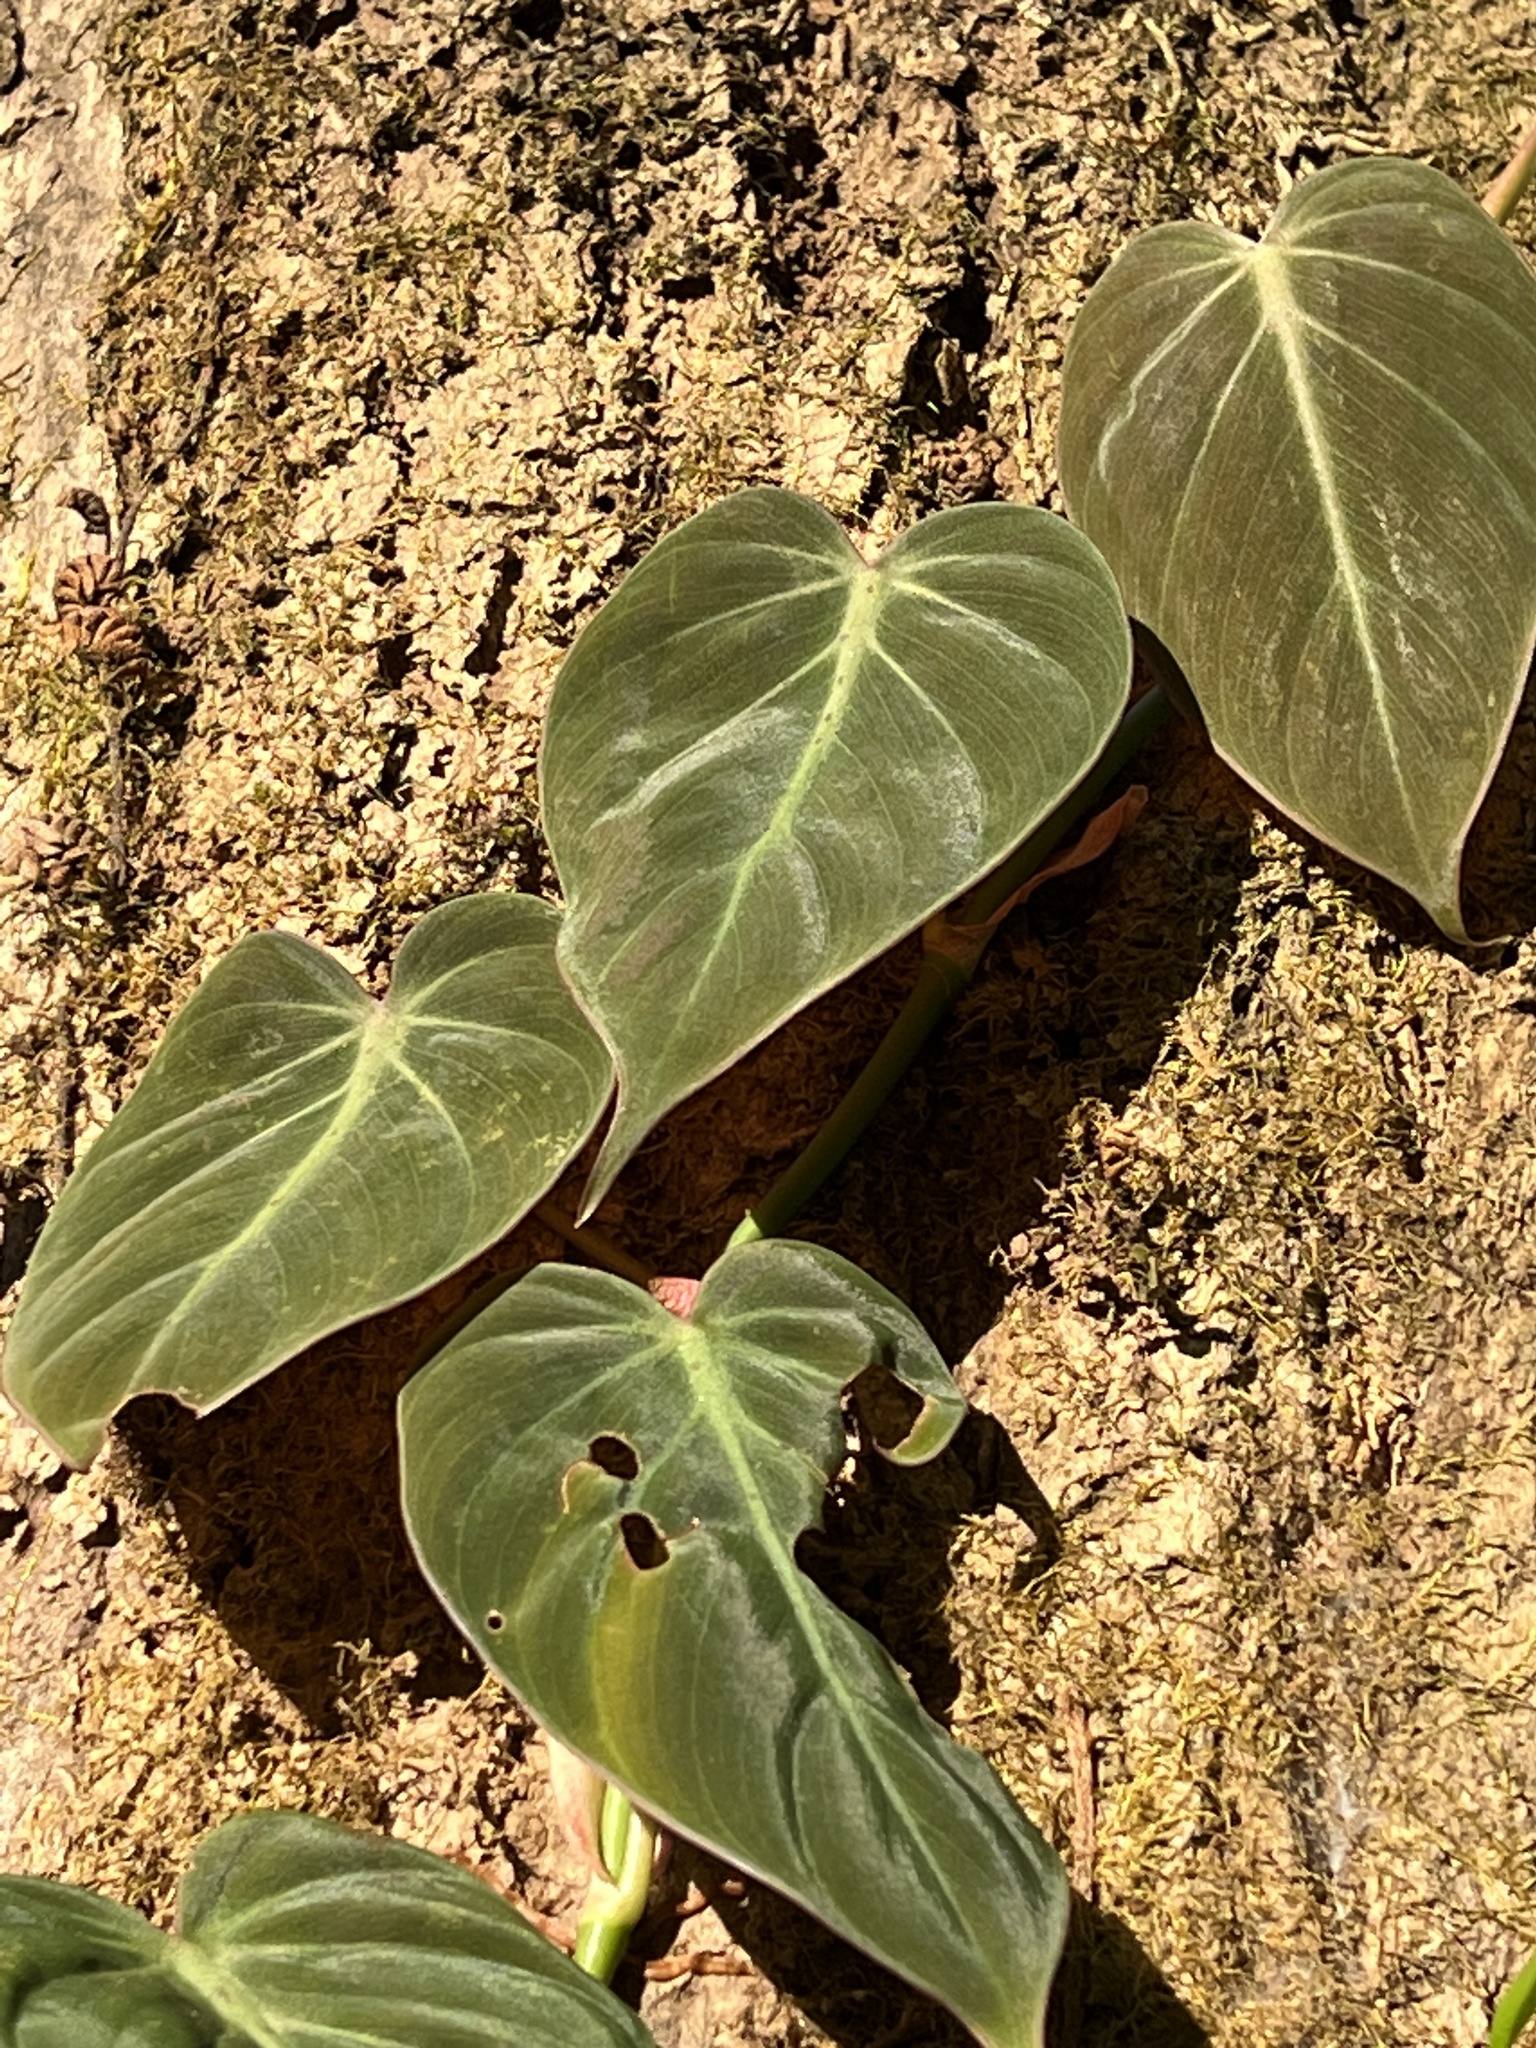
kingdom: Plantae
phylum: Tracheophyta
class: Liliopsida
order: Alismatales
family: Araceae
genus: Philodendron
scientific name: Philodendron hederaceum
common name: Vilevine
